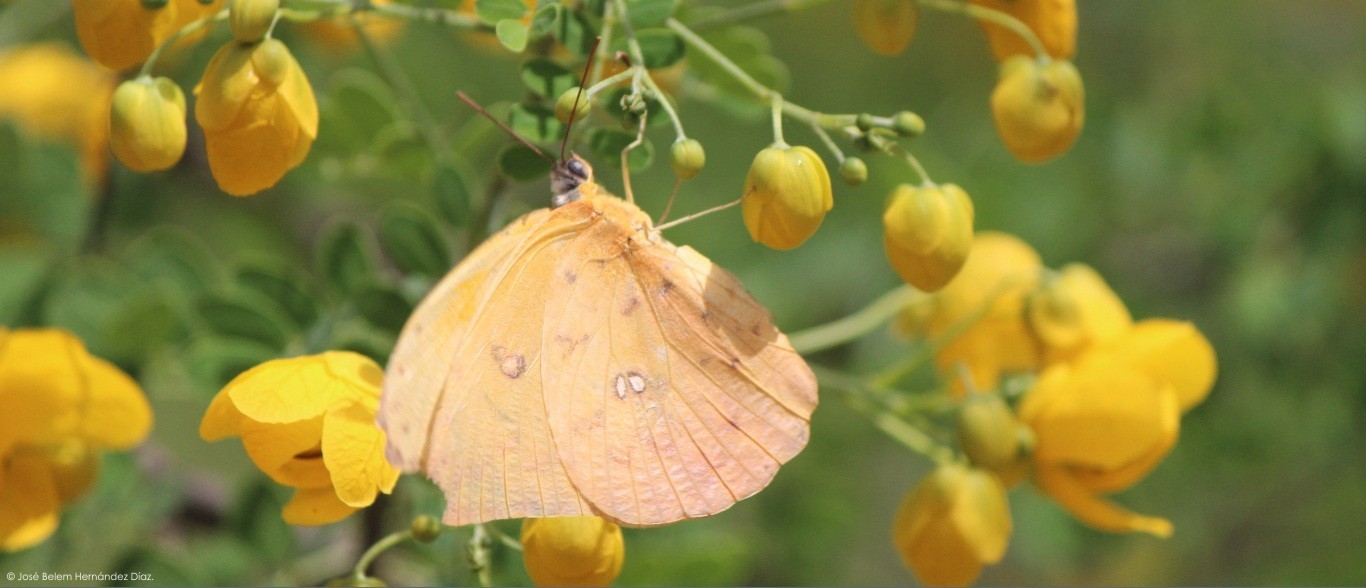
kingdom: Animalia
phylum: Arthropoda
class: Insecta
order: Lepidoptera
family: Pieridae
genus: Phoebis
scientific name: Phoebis philea
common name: Orange-barred giant sulphur
